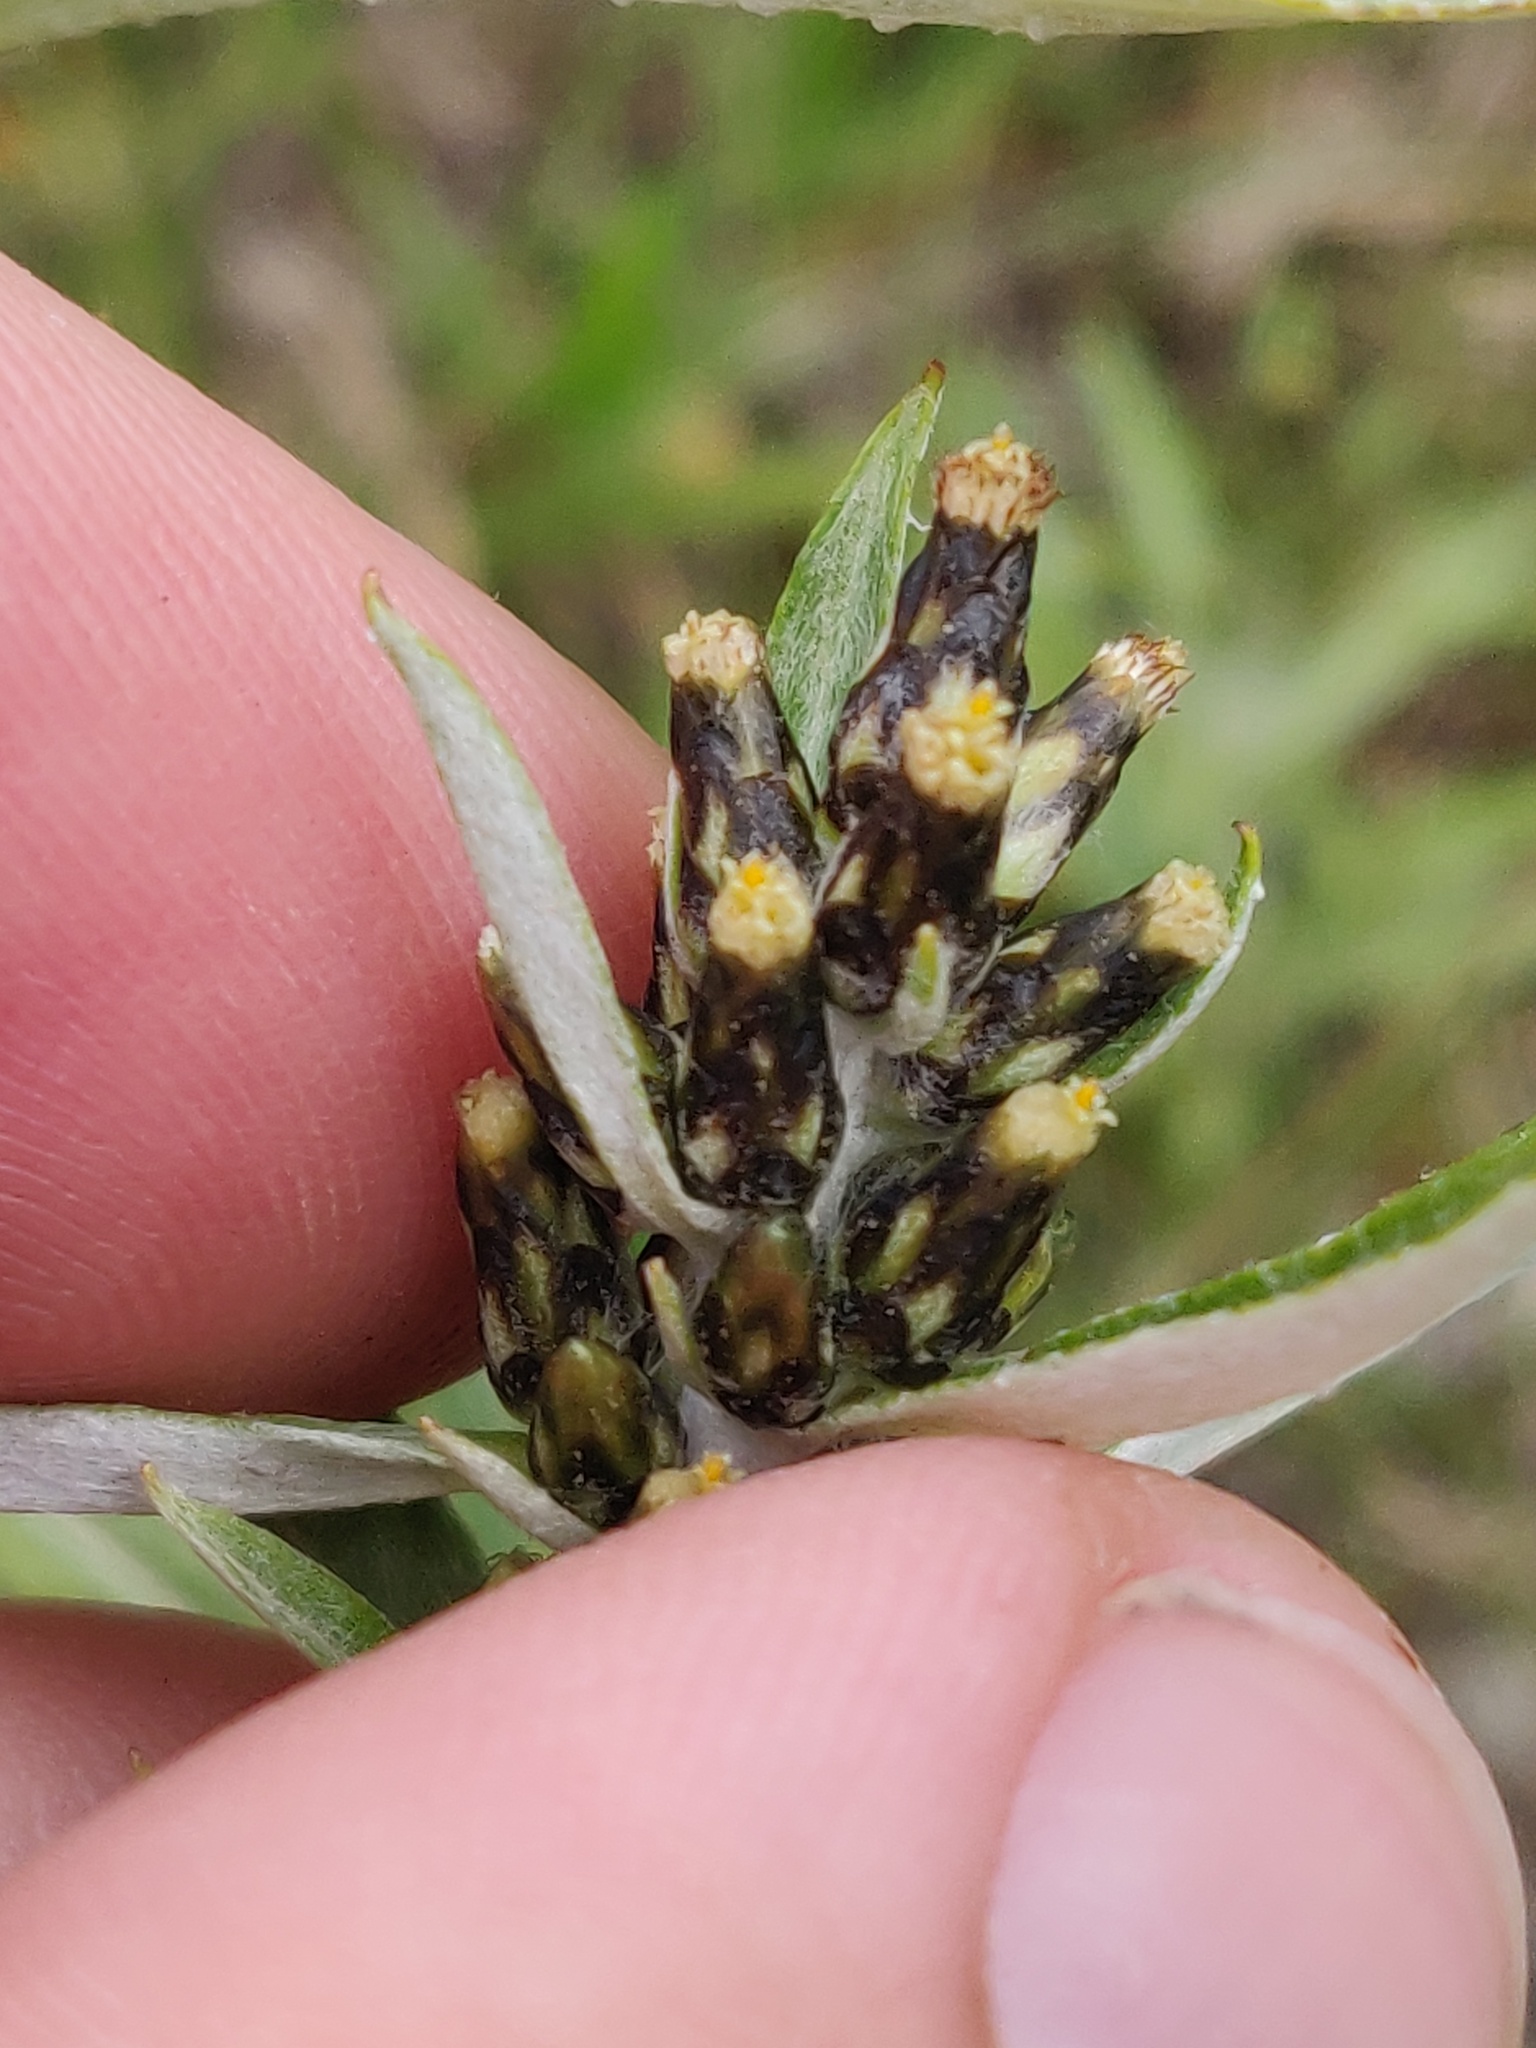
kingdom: Plantae
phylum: Tracheophyta
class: Magnoliopsida
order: Asterales
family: Asteraceae
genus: Omalotheca
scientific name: Omalotheca sylvatica
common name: Heath cudweed
